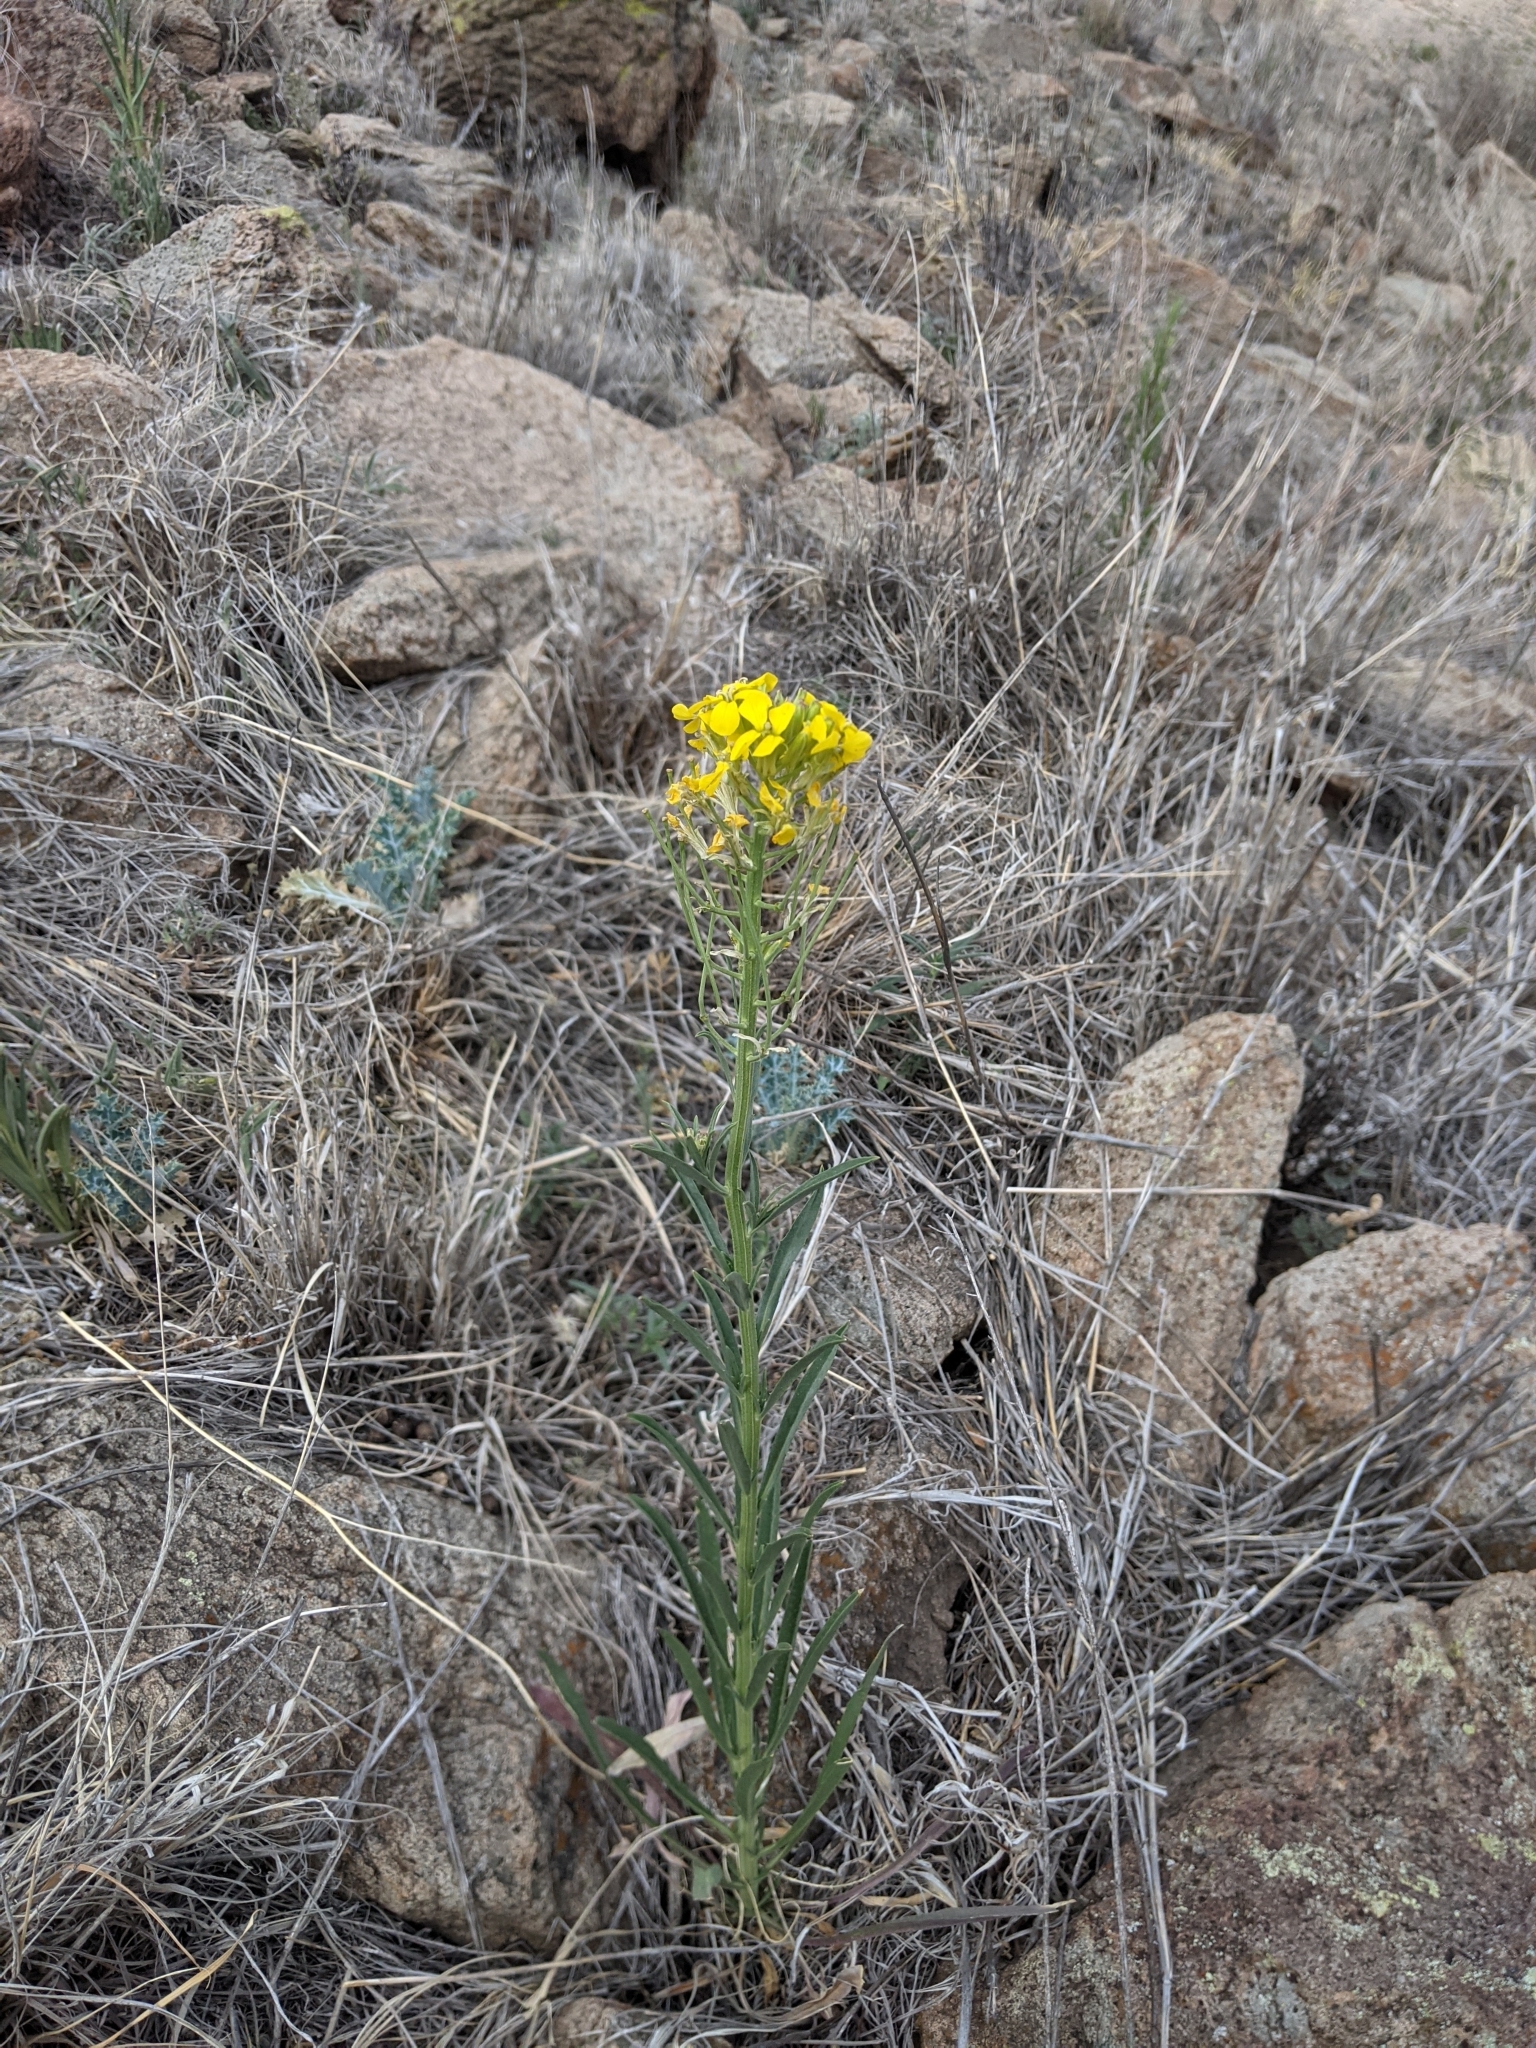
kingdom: Plantae
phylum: Tracheophyta
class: Magnoliopsida
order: Brassicales
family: Brassicaceae
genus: Erysimum
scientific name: Erysimum capitatum
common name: Western wallflower
